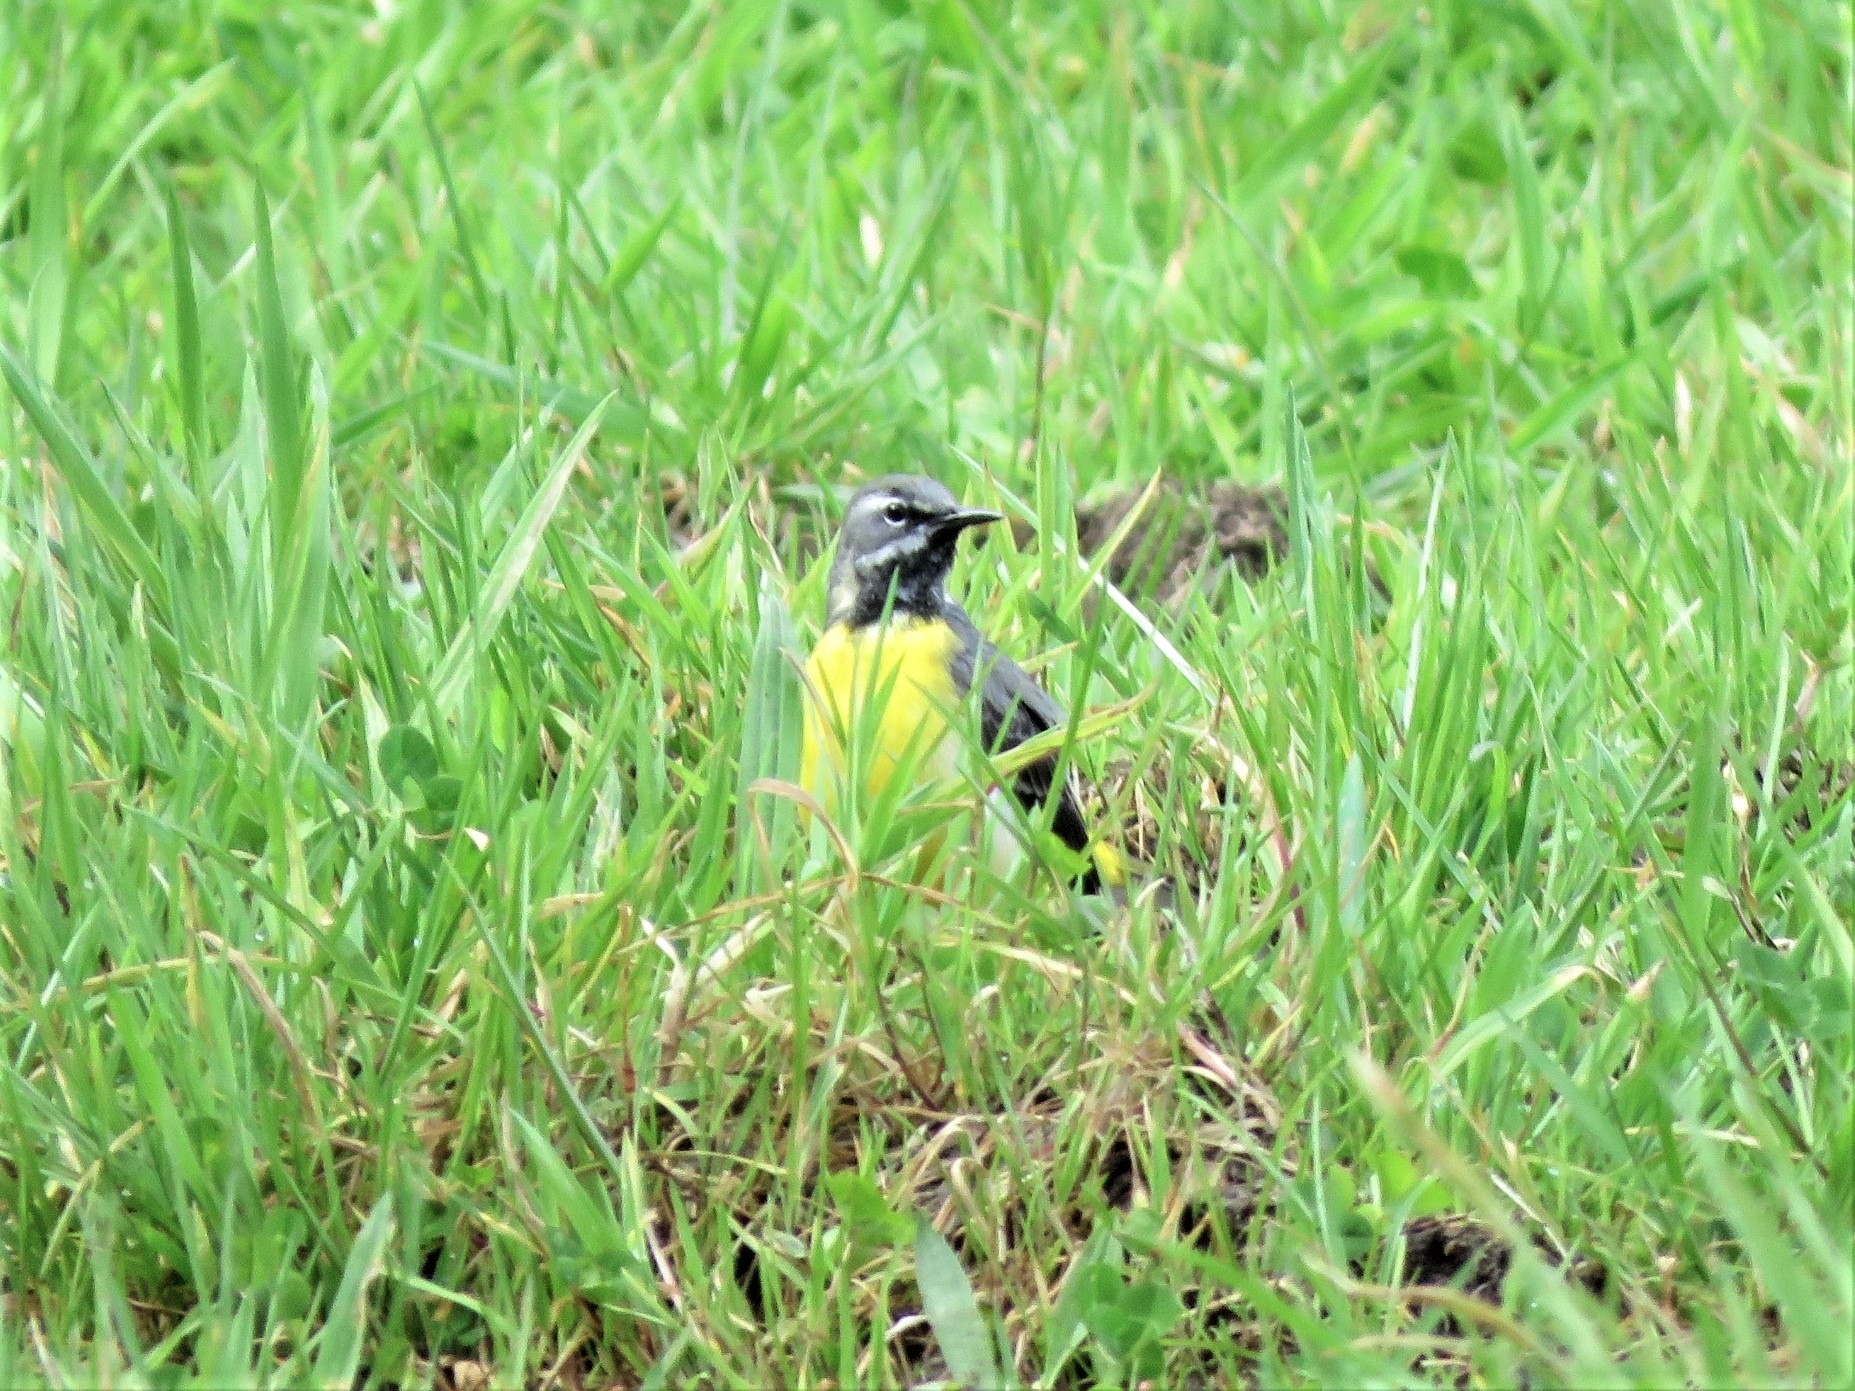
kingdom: Animalia
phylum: Chordata
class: Aves
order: Passeriformes
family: Motacillidae
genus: Motacilla
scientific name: Motacilla cinerea
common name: Grey wagtail
